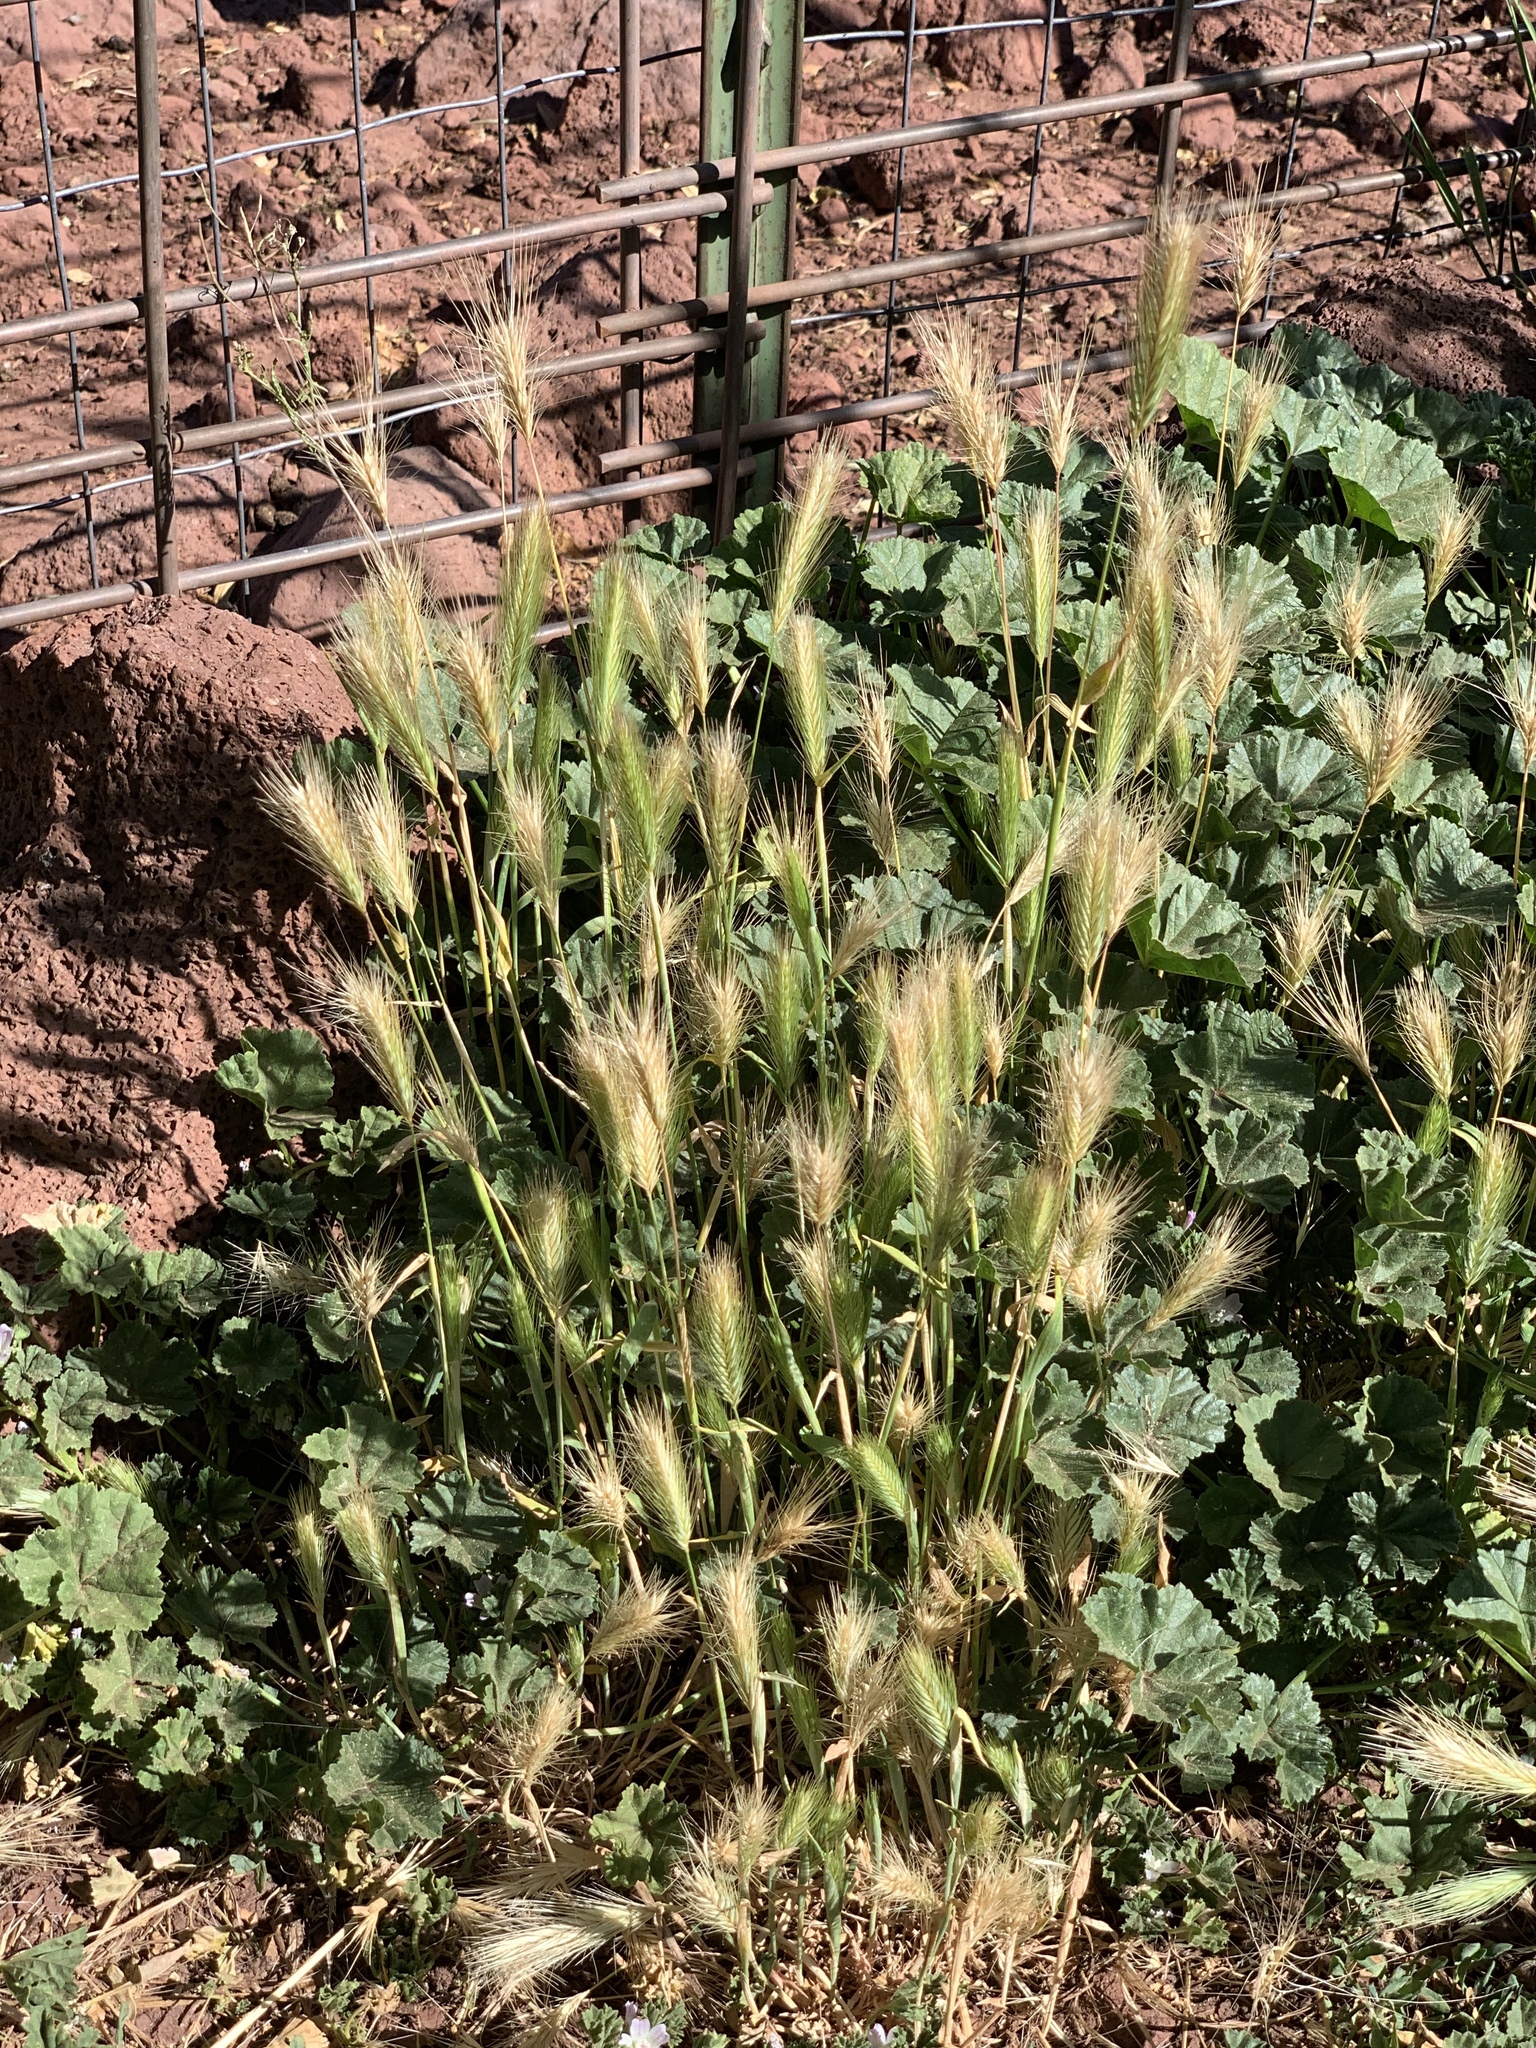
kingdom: Plantae
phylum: Tracheophyta
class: Liliopsida
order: Poales
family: Poaceae
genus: Hordeum
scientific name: Hordeum murinum
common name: Wall barley
